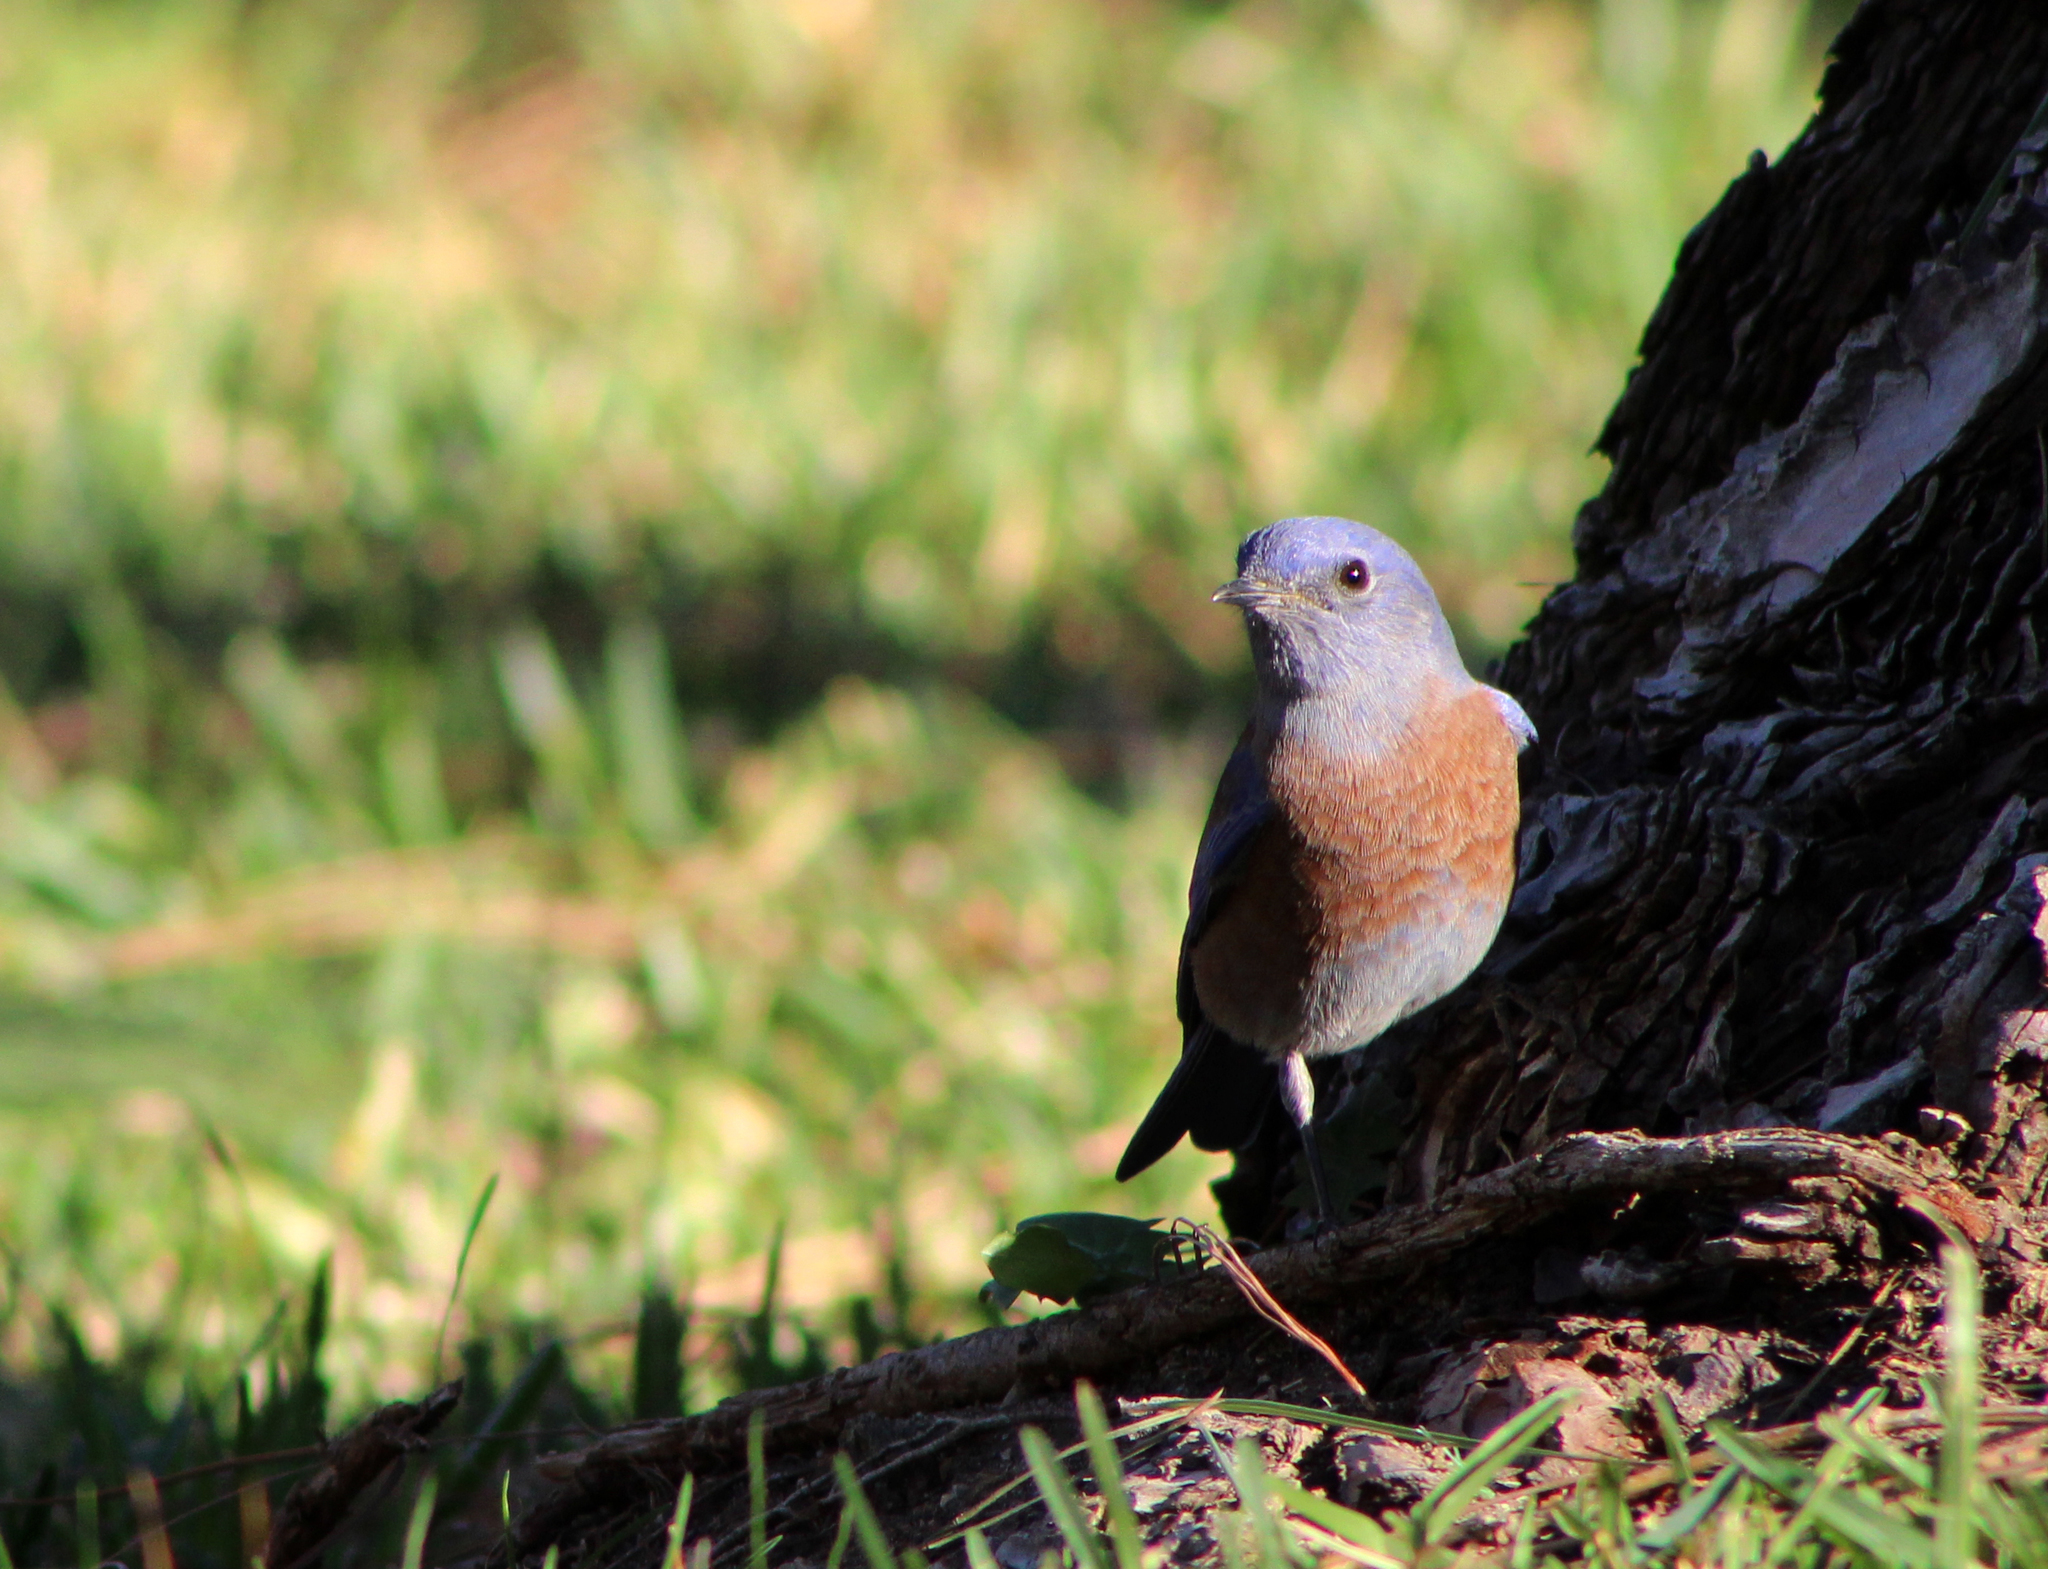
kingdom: Animalia
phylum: Chordata
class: Aves
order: Passeriformes
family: Turdidae
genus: Sialia
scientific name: Sialia mexicana
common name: Western bluebird
